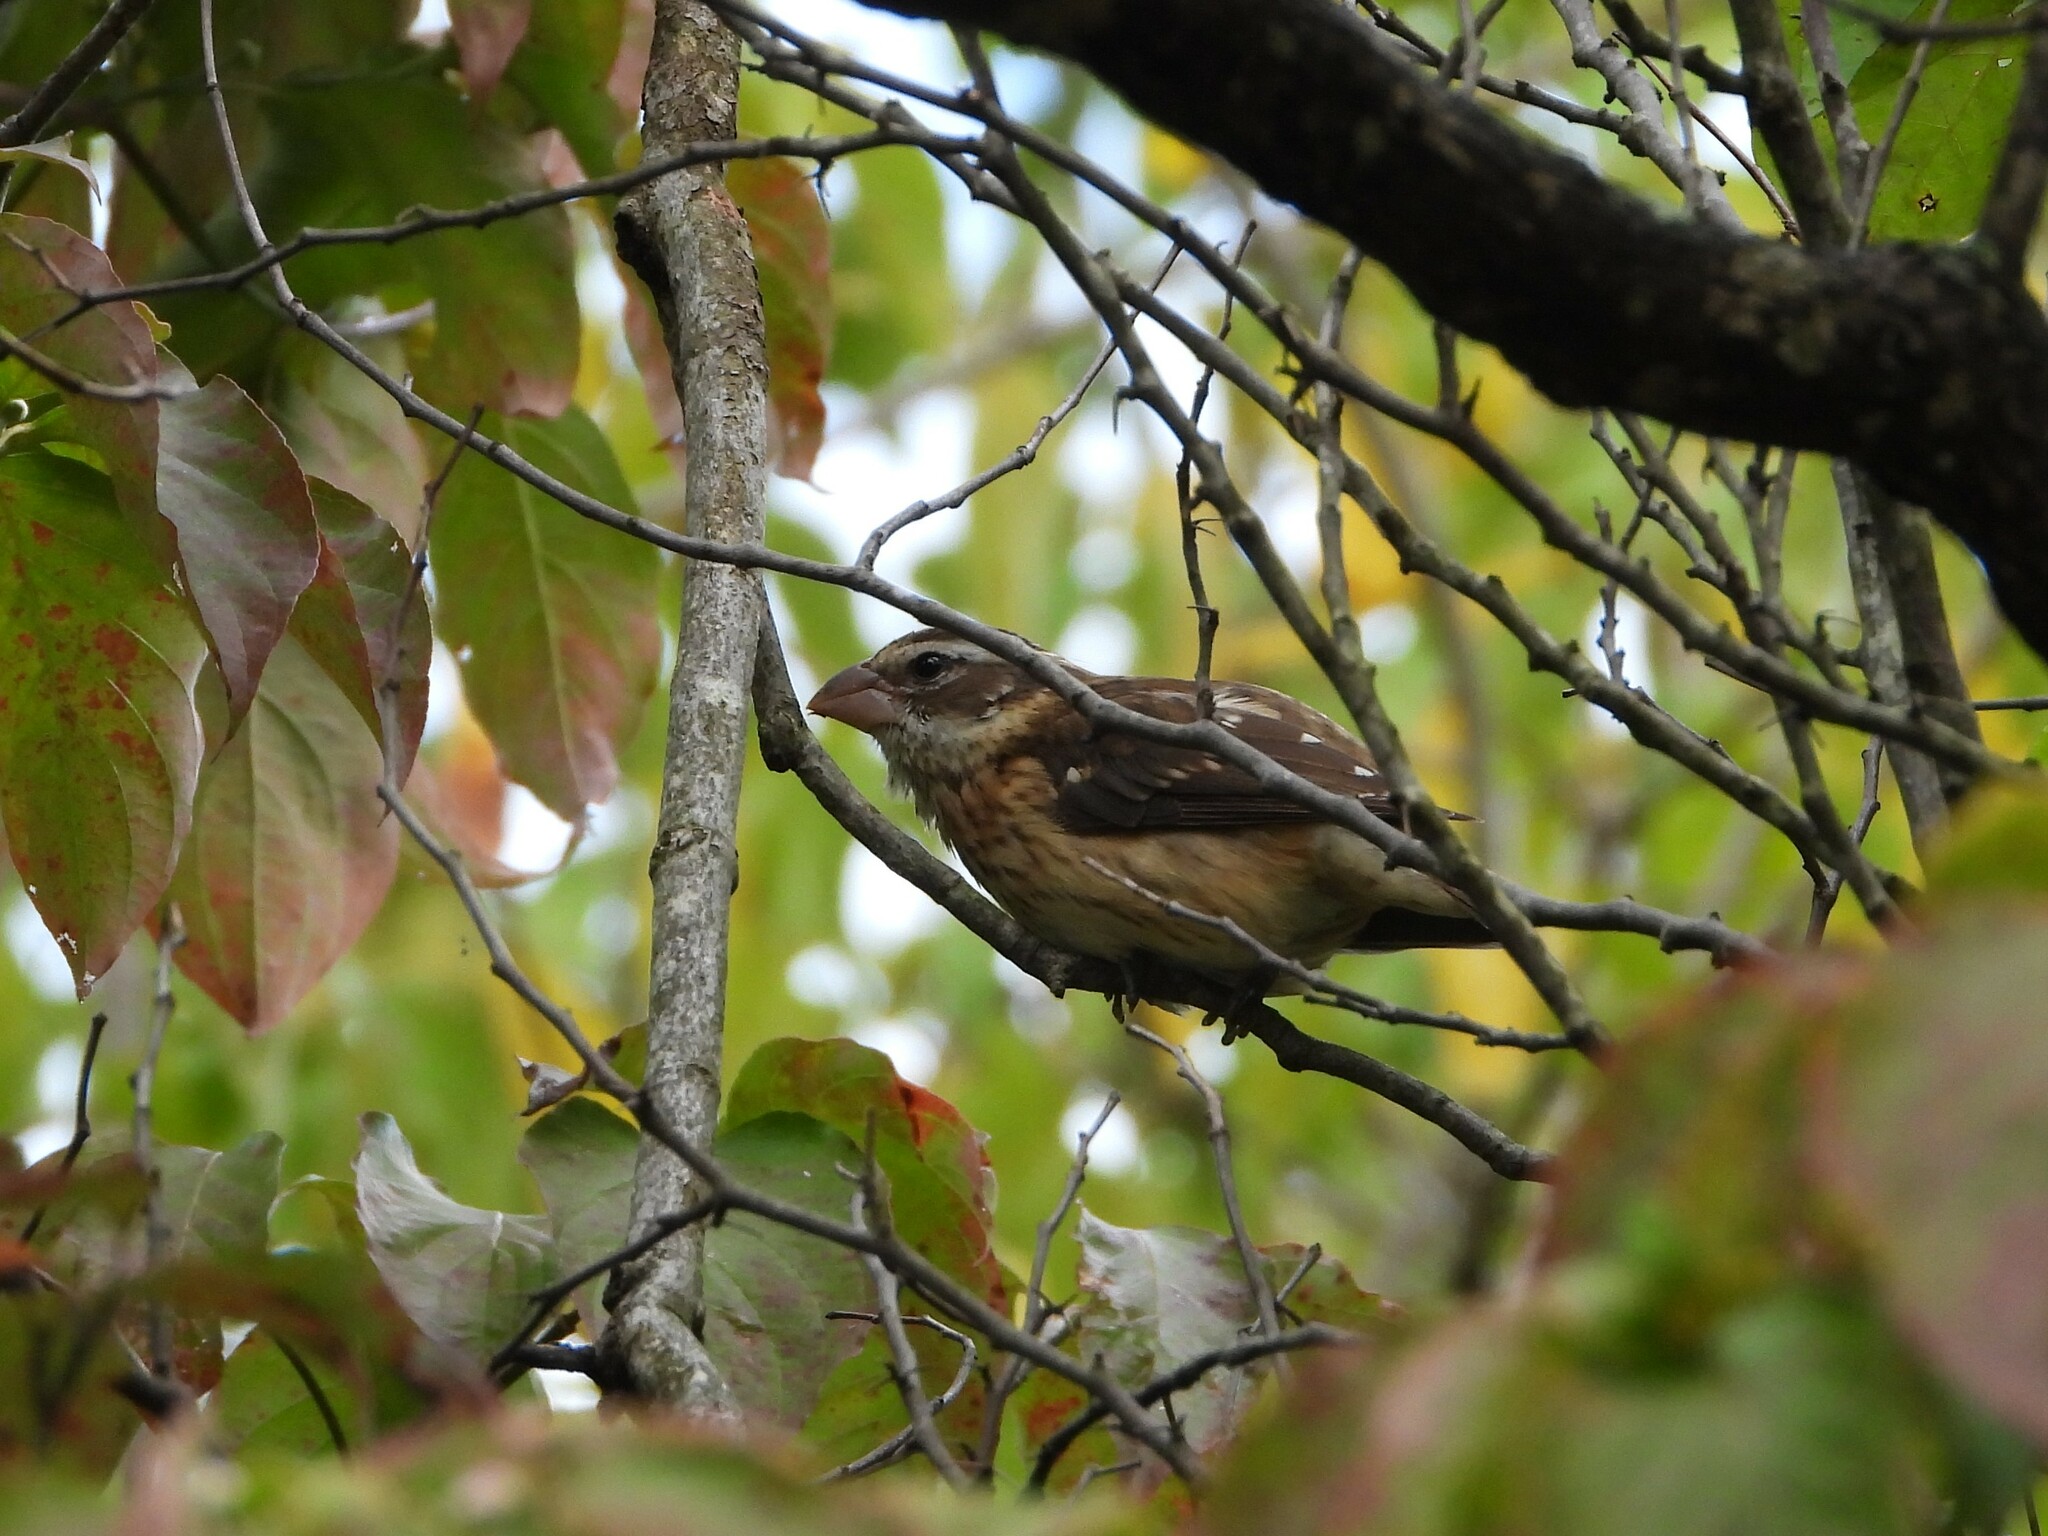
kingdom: Animalia
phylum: Chordata
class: Aves
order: Passeriformes
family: Cardinalidae
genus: Pheucticus
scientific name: Pheucticus ludovicianus
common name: Rose-breasted grosbeak
